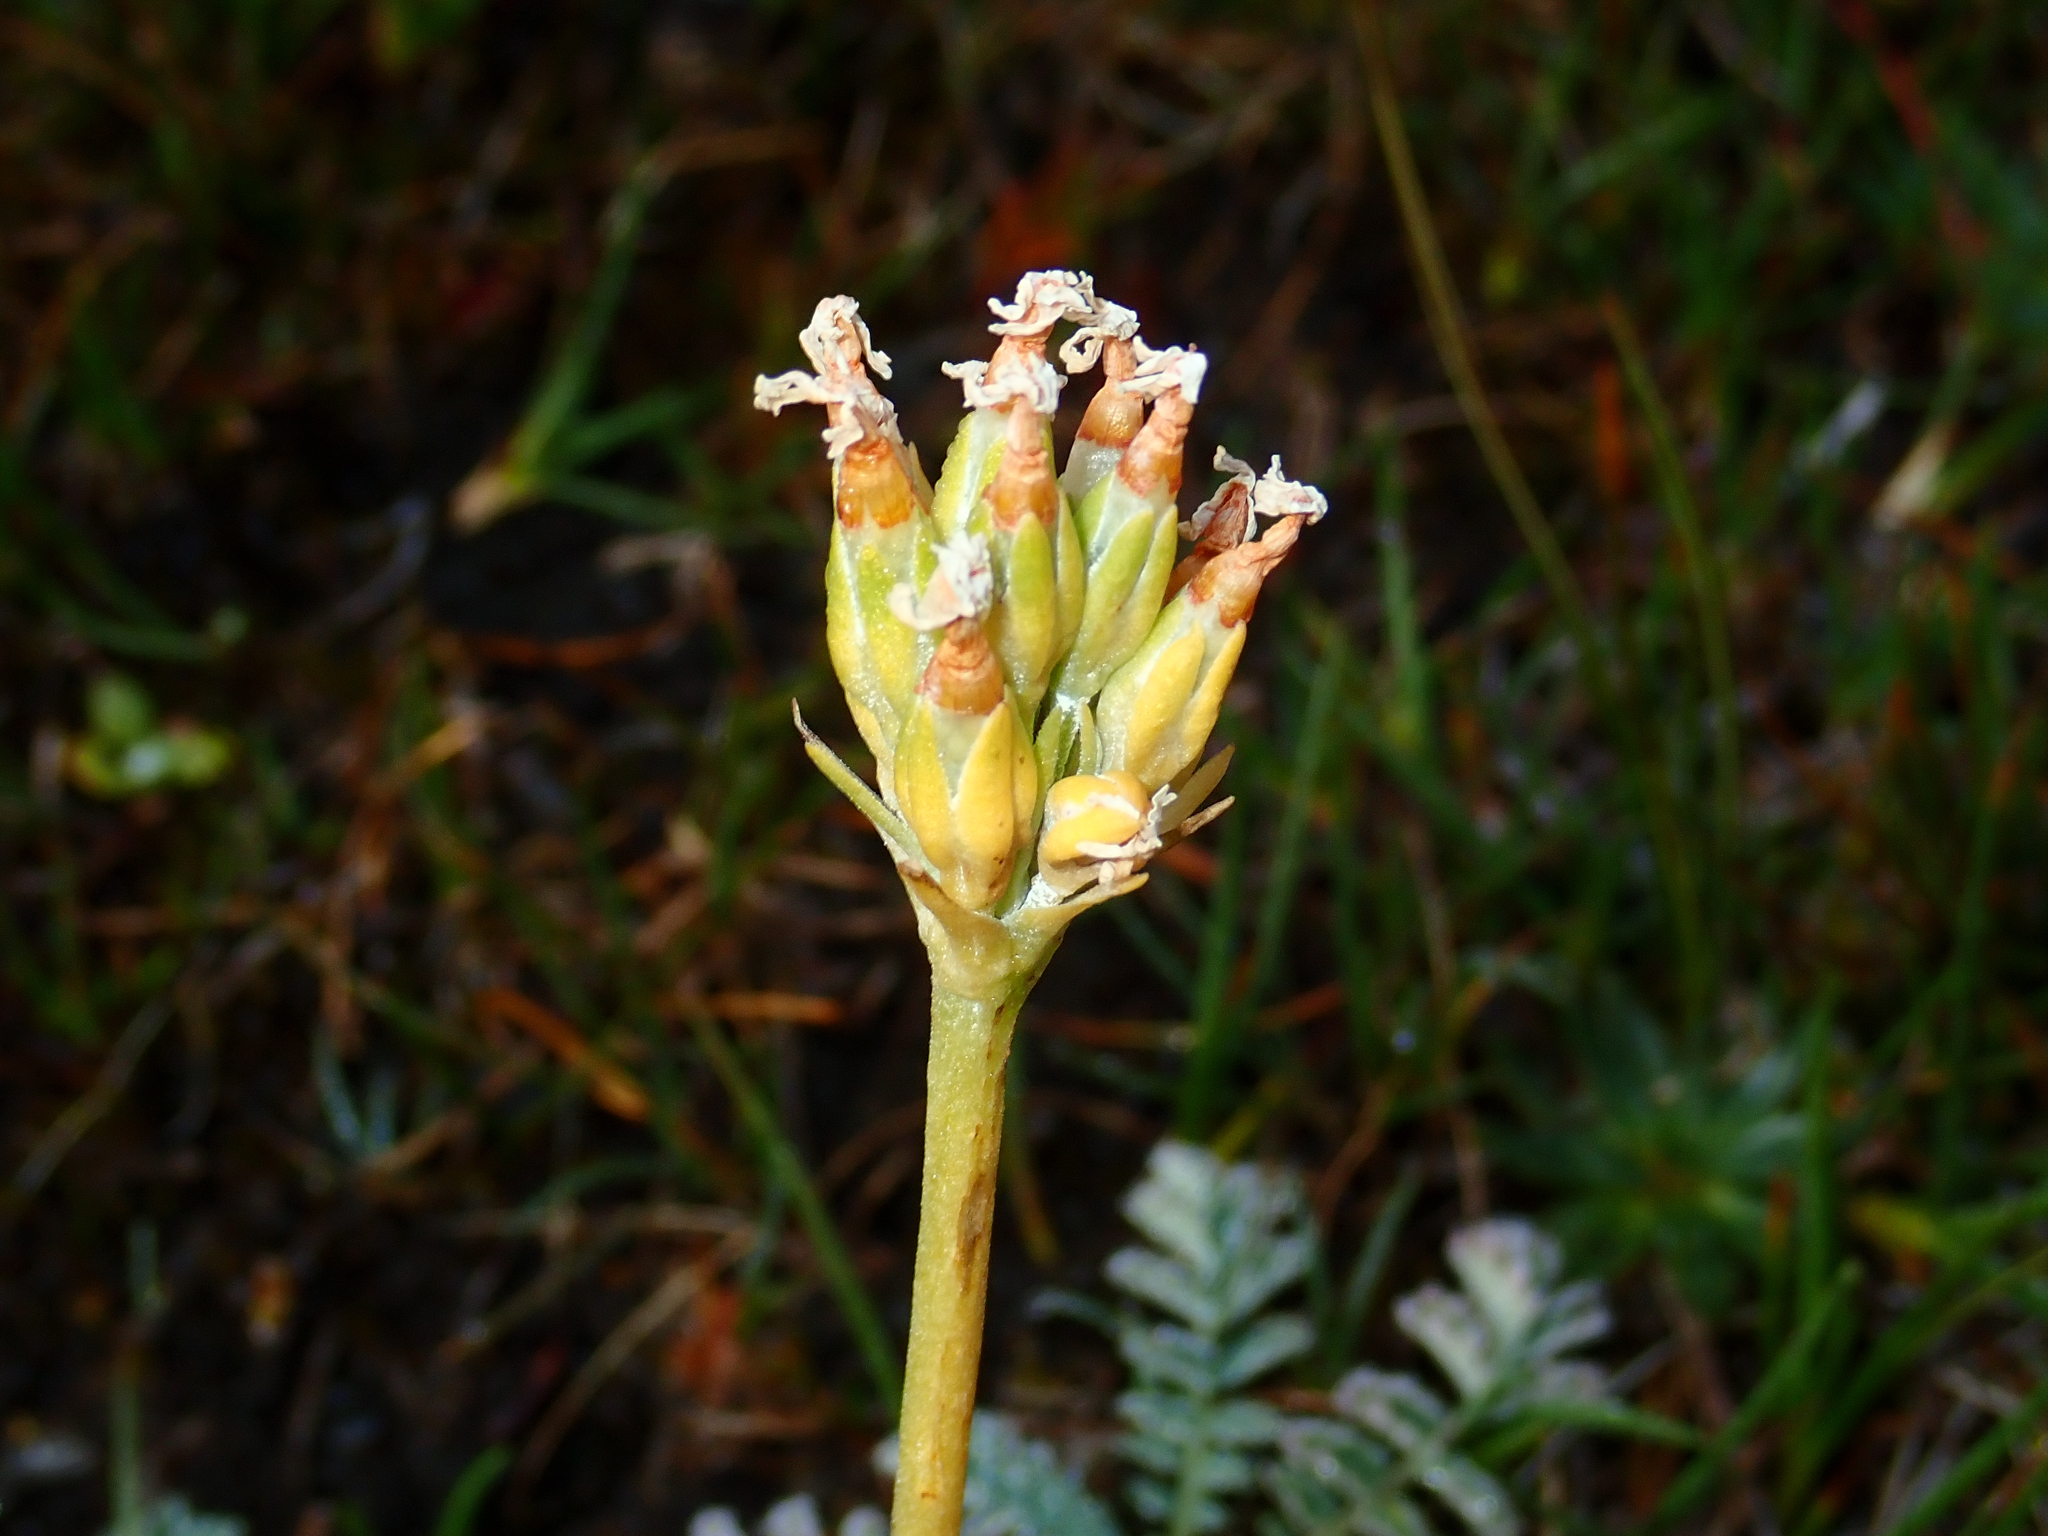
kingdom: Plantae
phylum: Tracheophyta
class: Magnoliopsida
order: Ericales
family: Primulaceae
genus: Primula
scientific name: Primula magellanica
